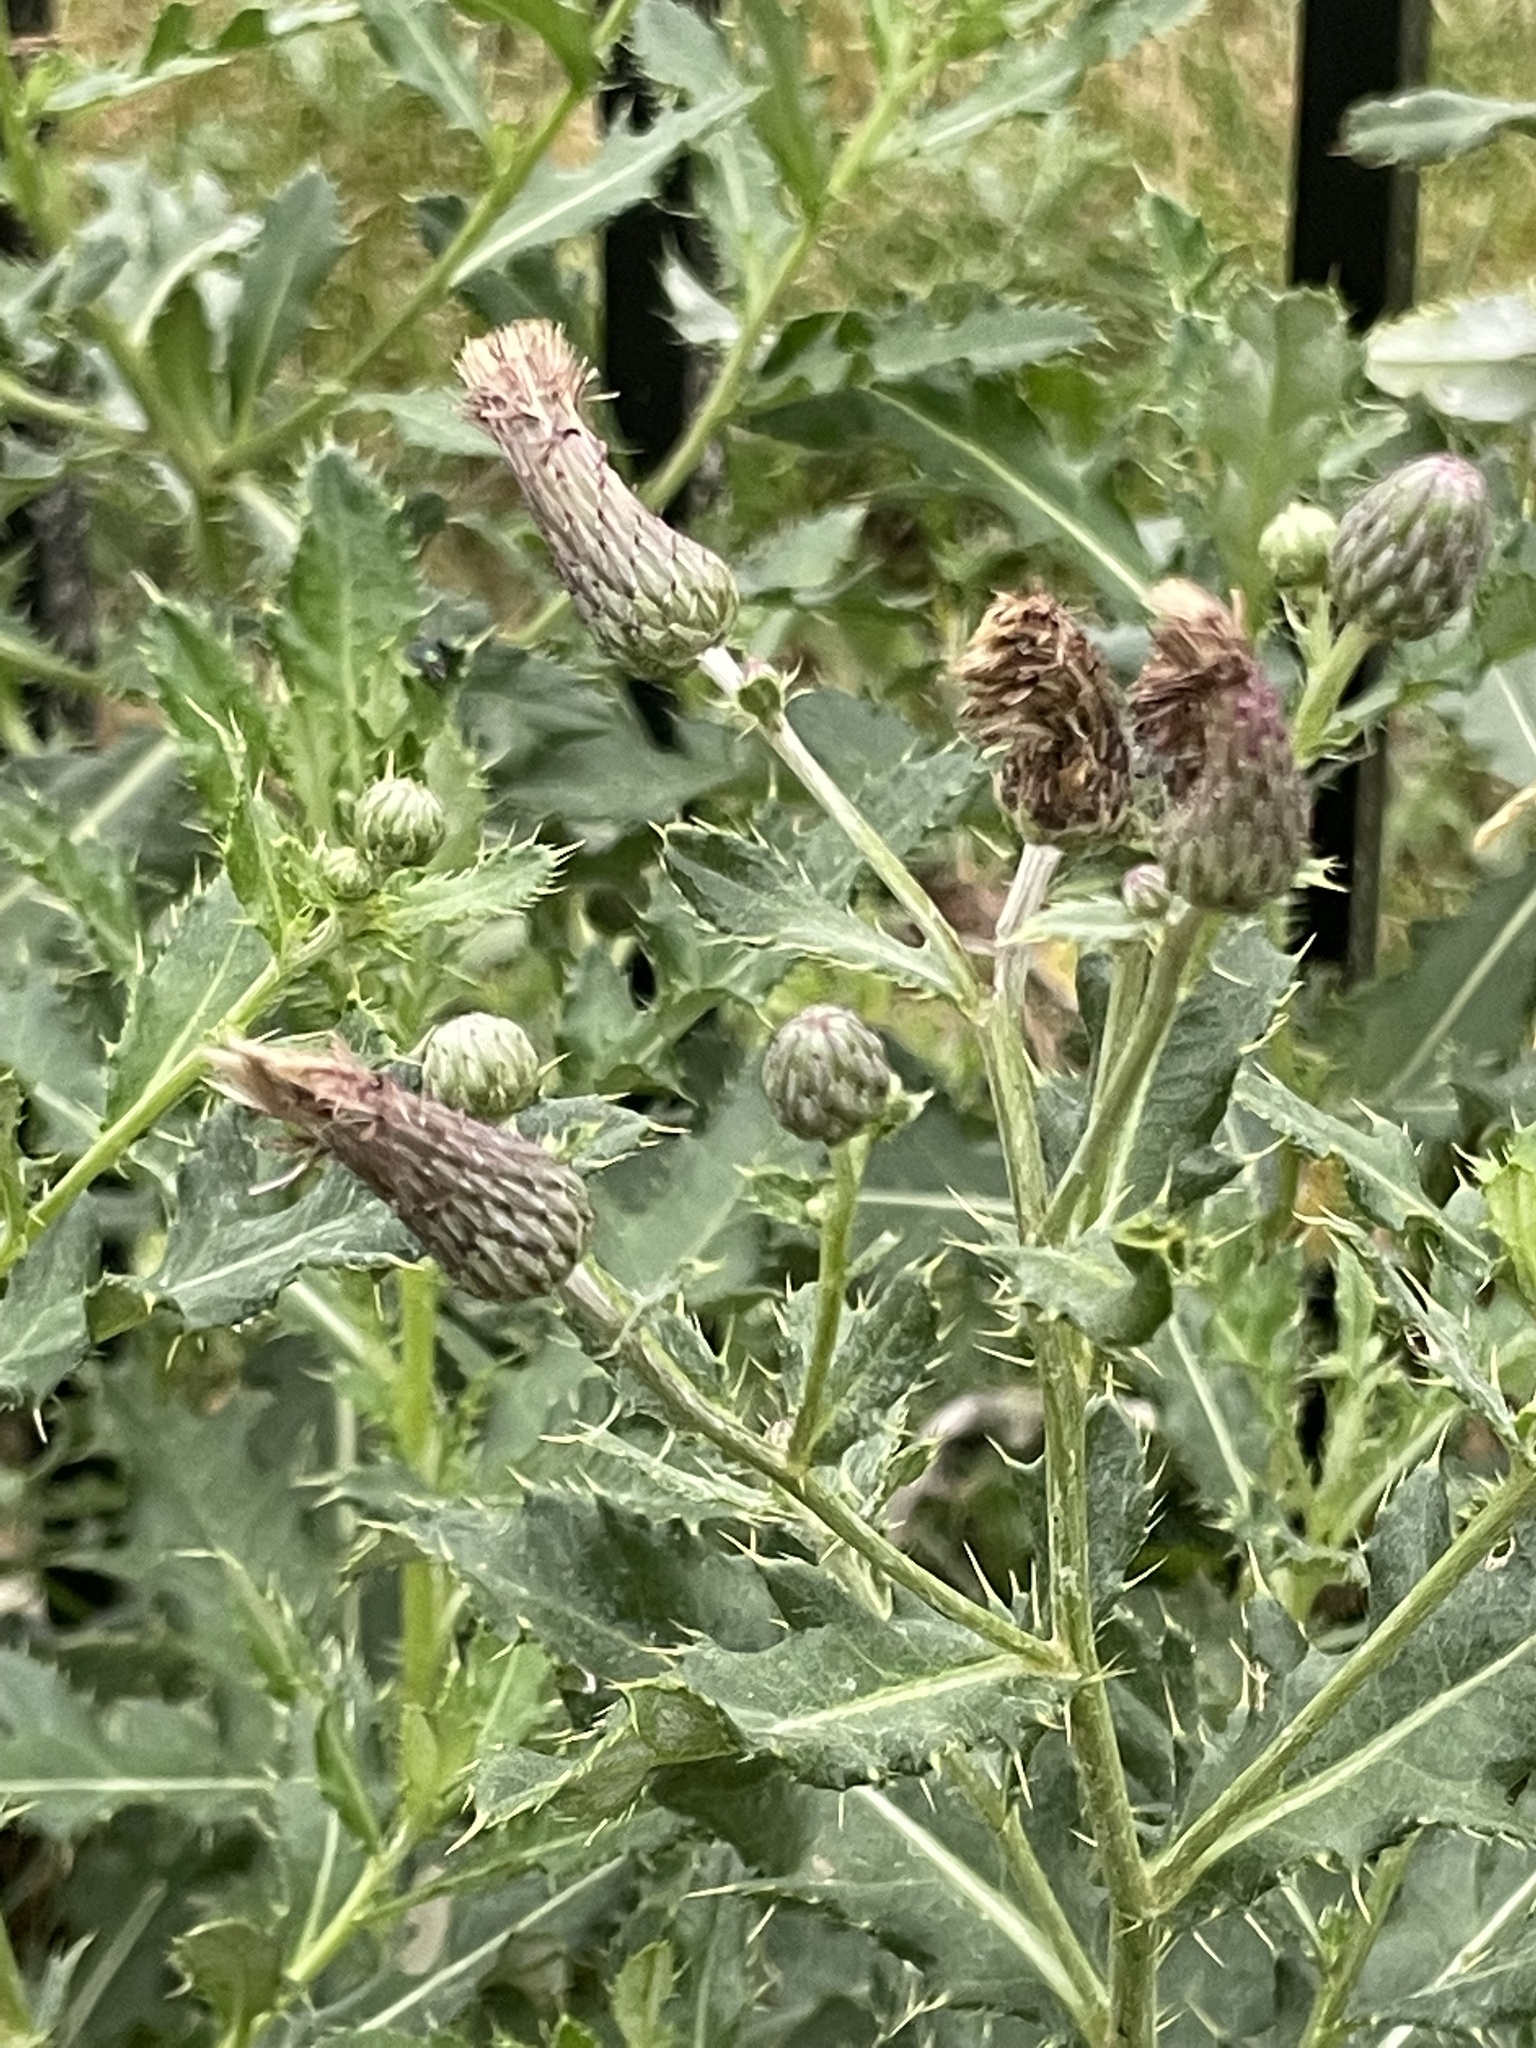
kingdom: Plantae
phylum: Tracheophyta
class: Magnoliopsida
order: Asterales
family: Asteraceae
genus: Cirsium
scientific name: Cirsium arvense
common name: Creeping thistle
